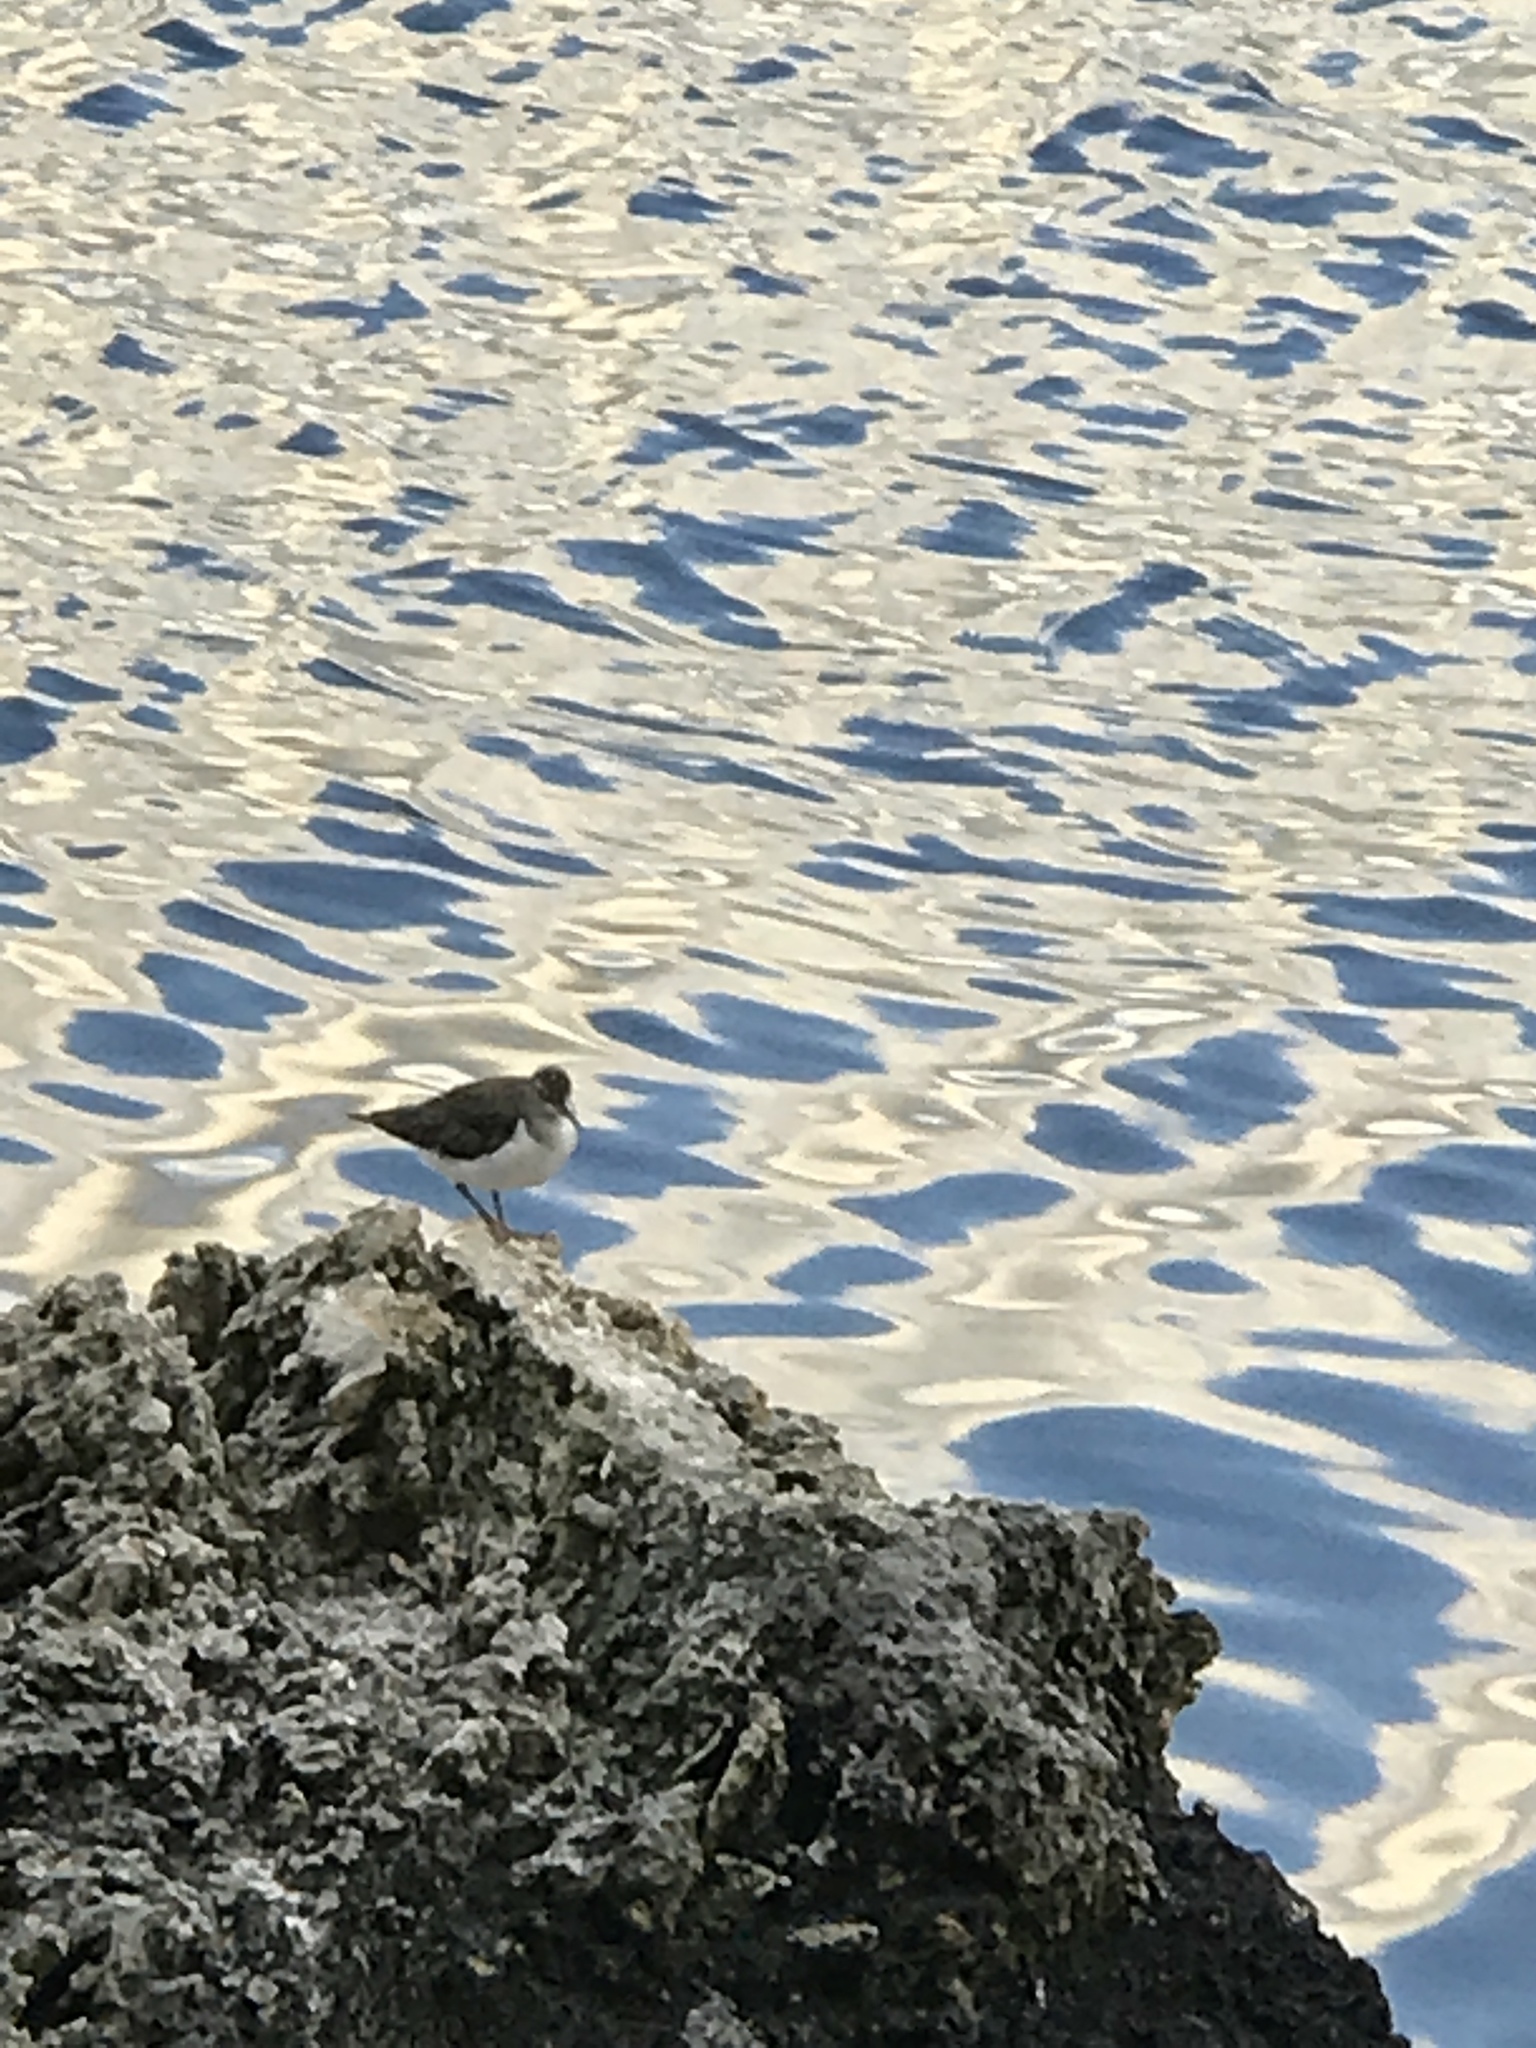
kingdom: Animalia
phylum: Chordata
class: Aves
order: Charadriiformes
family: Scolopacidae
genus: Actitis
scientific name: Actitis hypoleucos
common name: Common sandpiper
